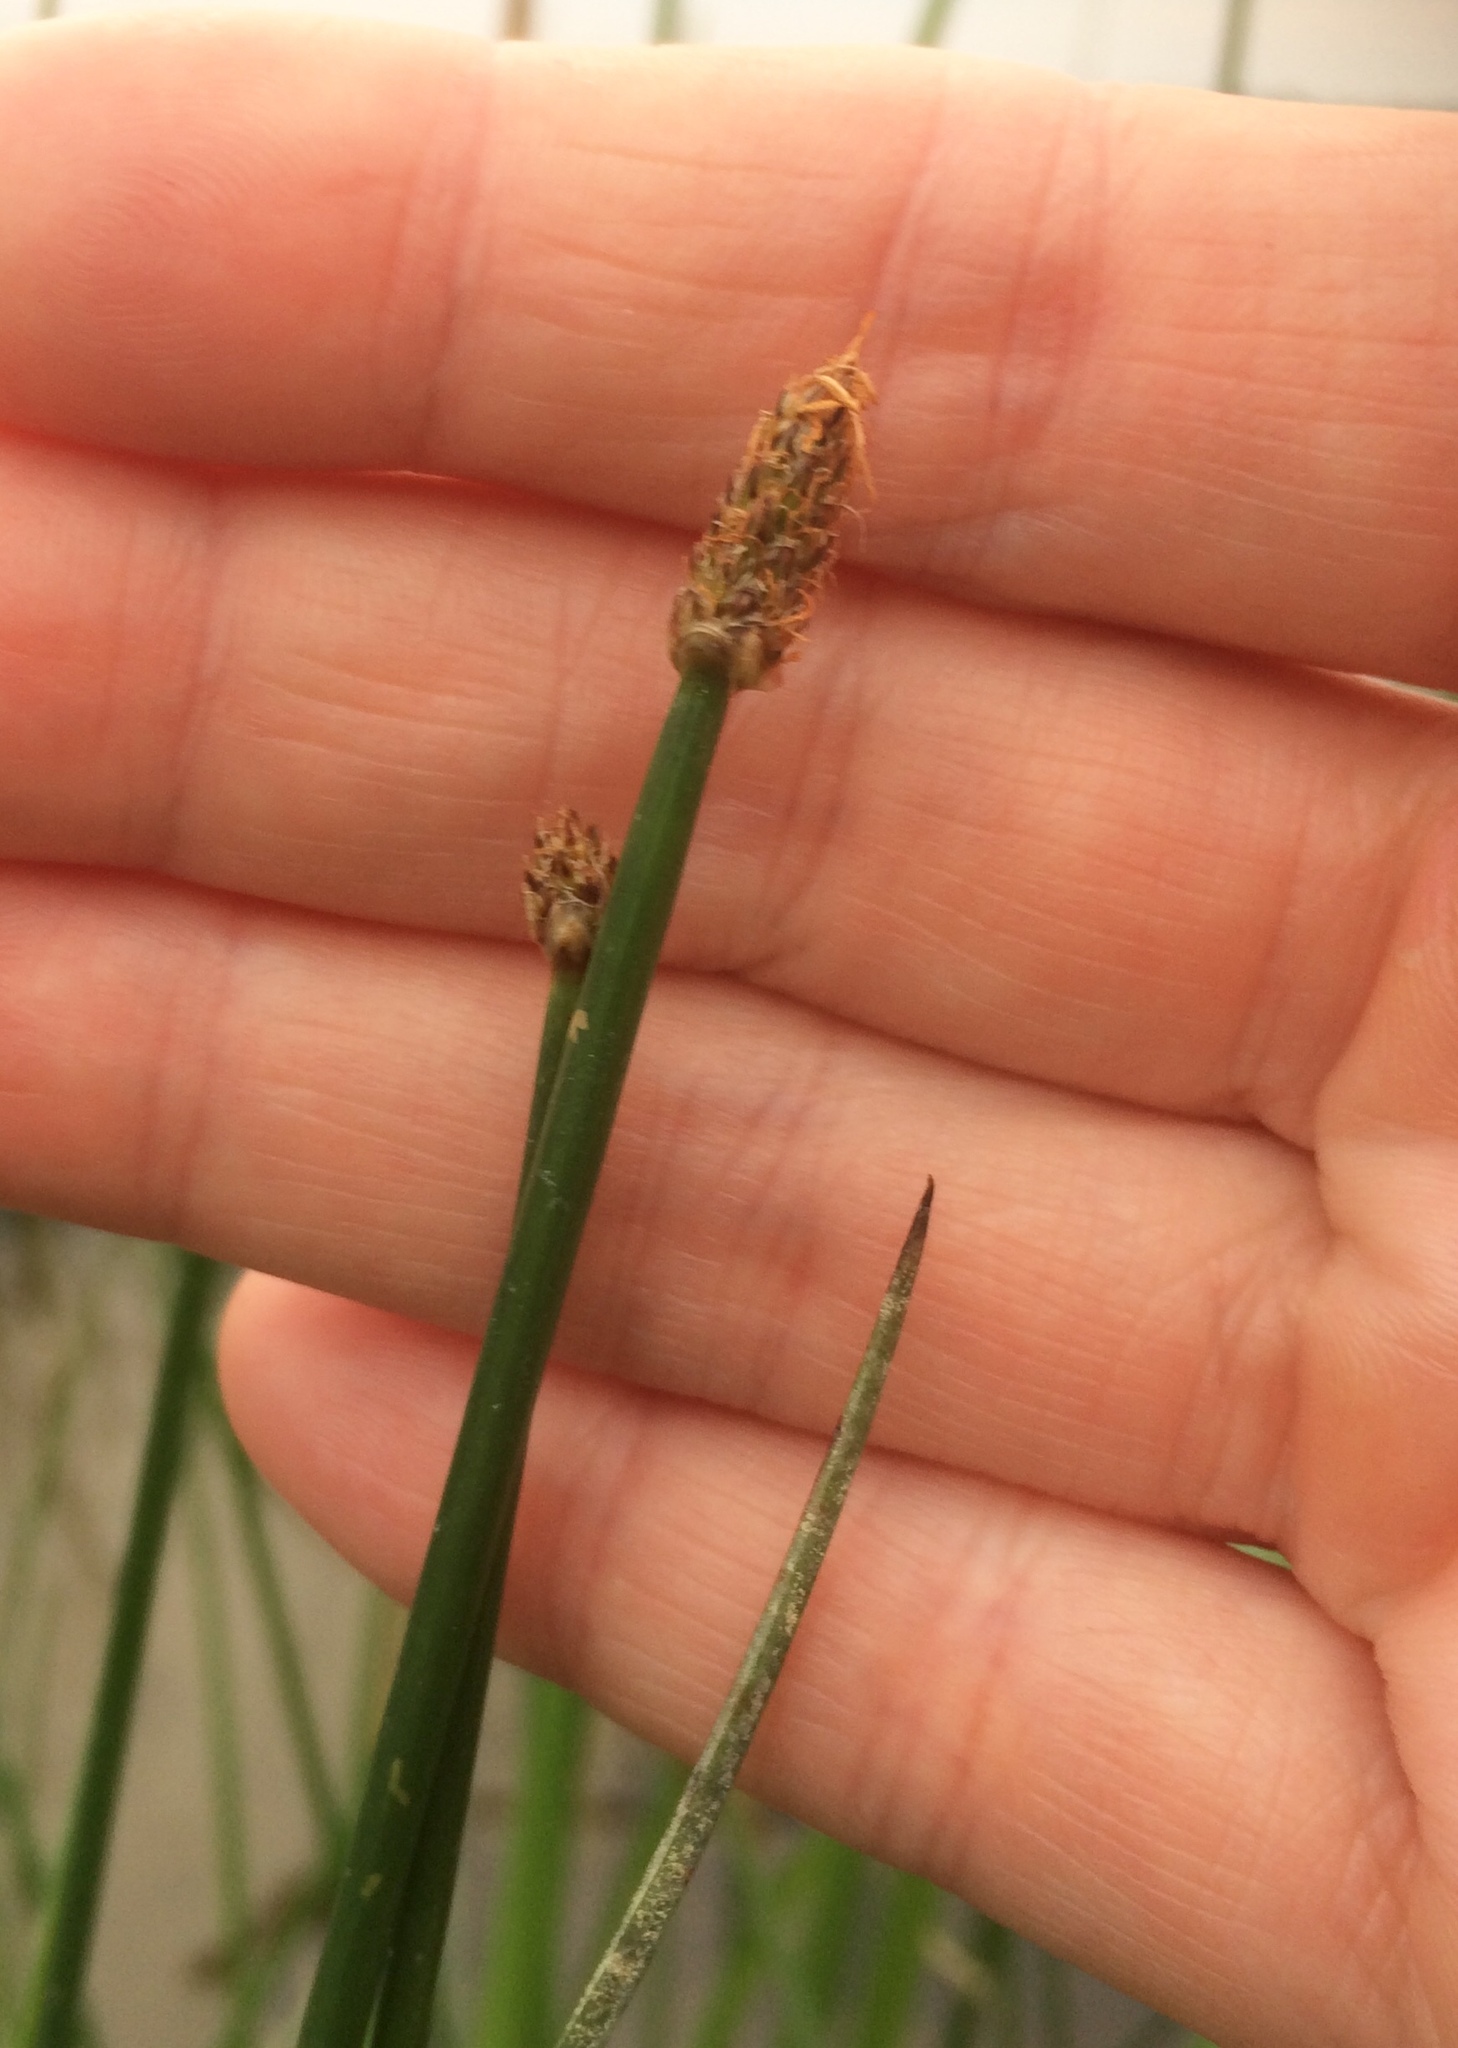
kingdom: Plantae
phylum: Tracheophyta
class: Liliopsida
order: Poales
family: Cyperaceae
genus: Eleocharis
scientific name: Eleocharis palustris
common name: Common spike-rush
